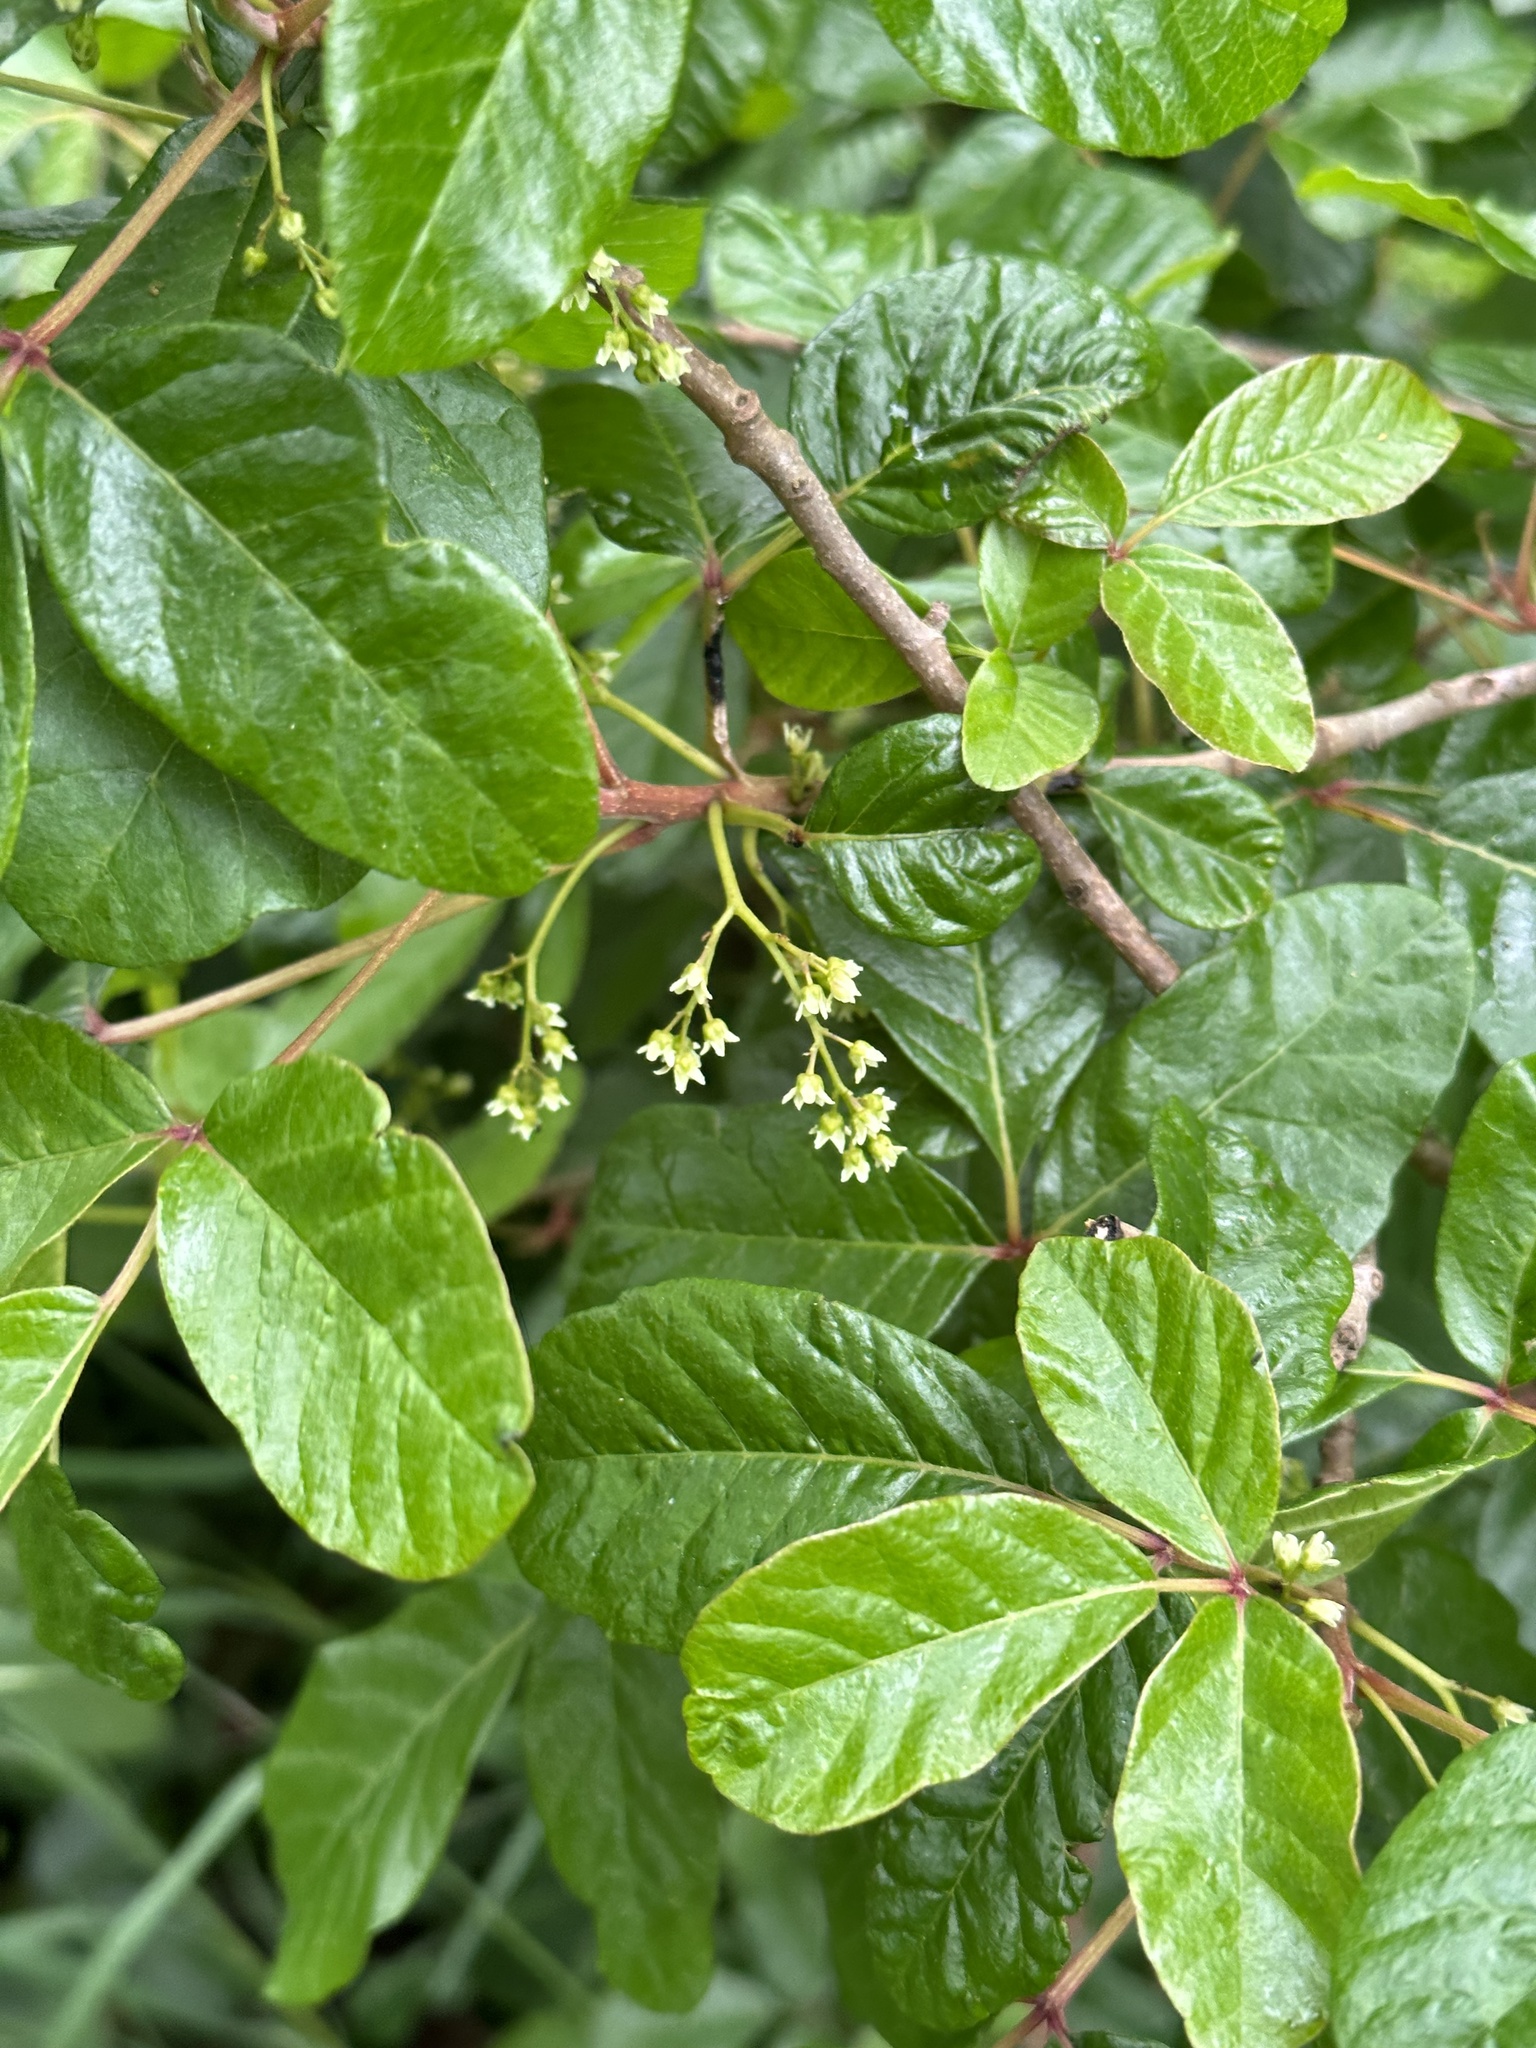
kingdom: Plantae
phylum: Tracheophyta
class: Magnoliopsida
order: Sapindales
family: Anacardiaceae
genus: Toxicodendron
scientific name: Toxicodendron diversilobum
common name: Pacific poison-oak
